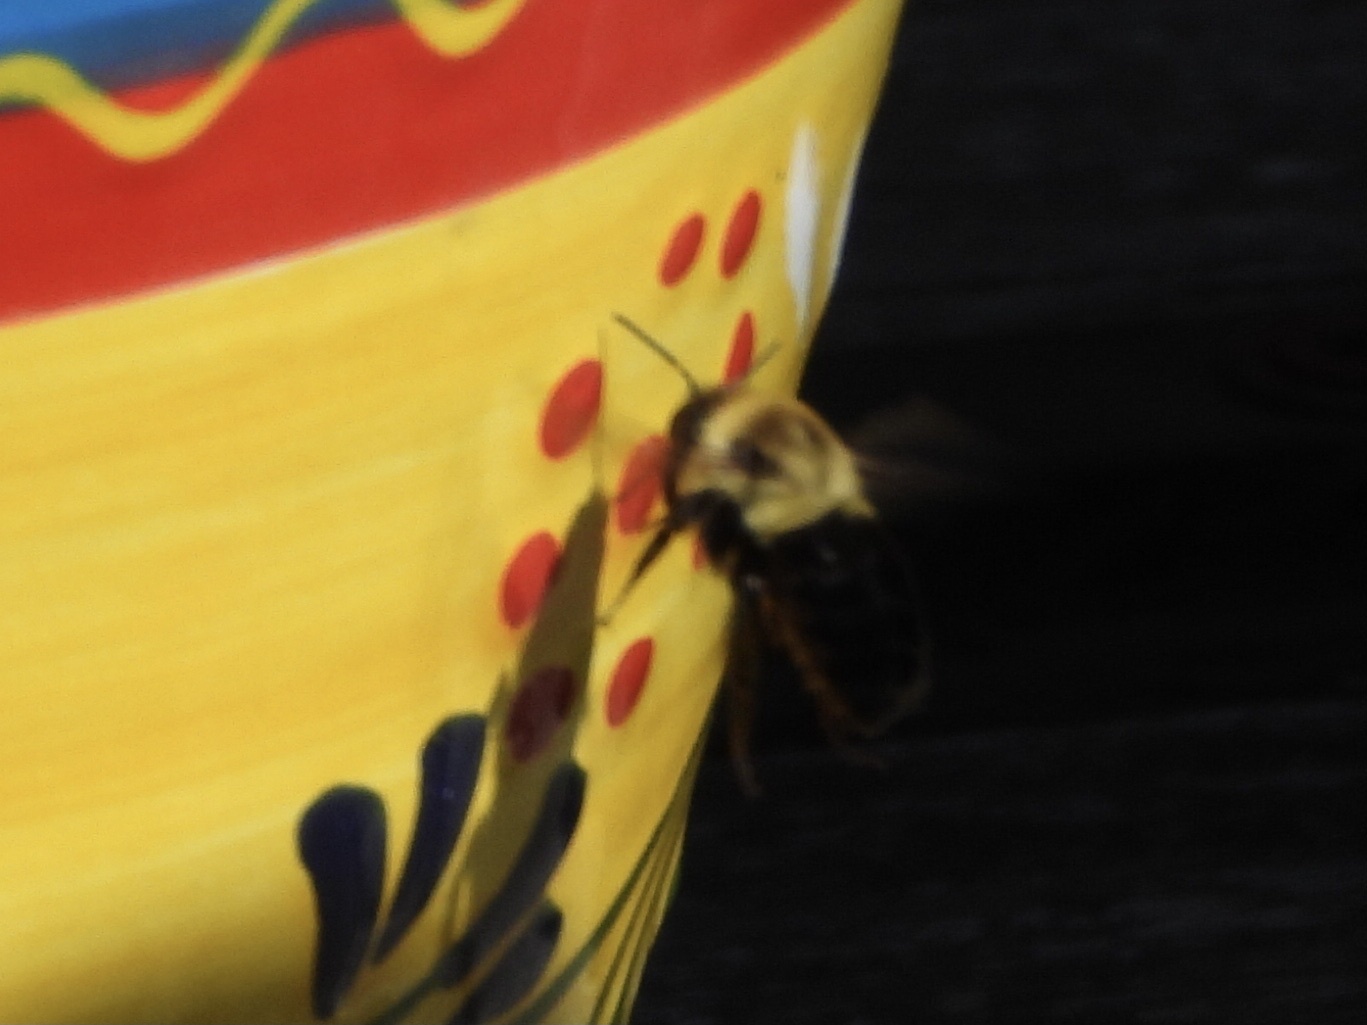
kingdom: Animalia
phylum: Arthropoda
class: Insecta
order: Hymenoptera
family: Apidae
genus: Bombus
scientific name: Bombus impatiens
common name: Common eastern bumble bee
